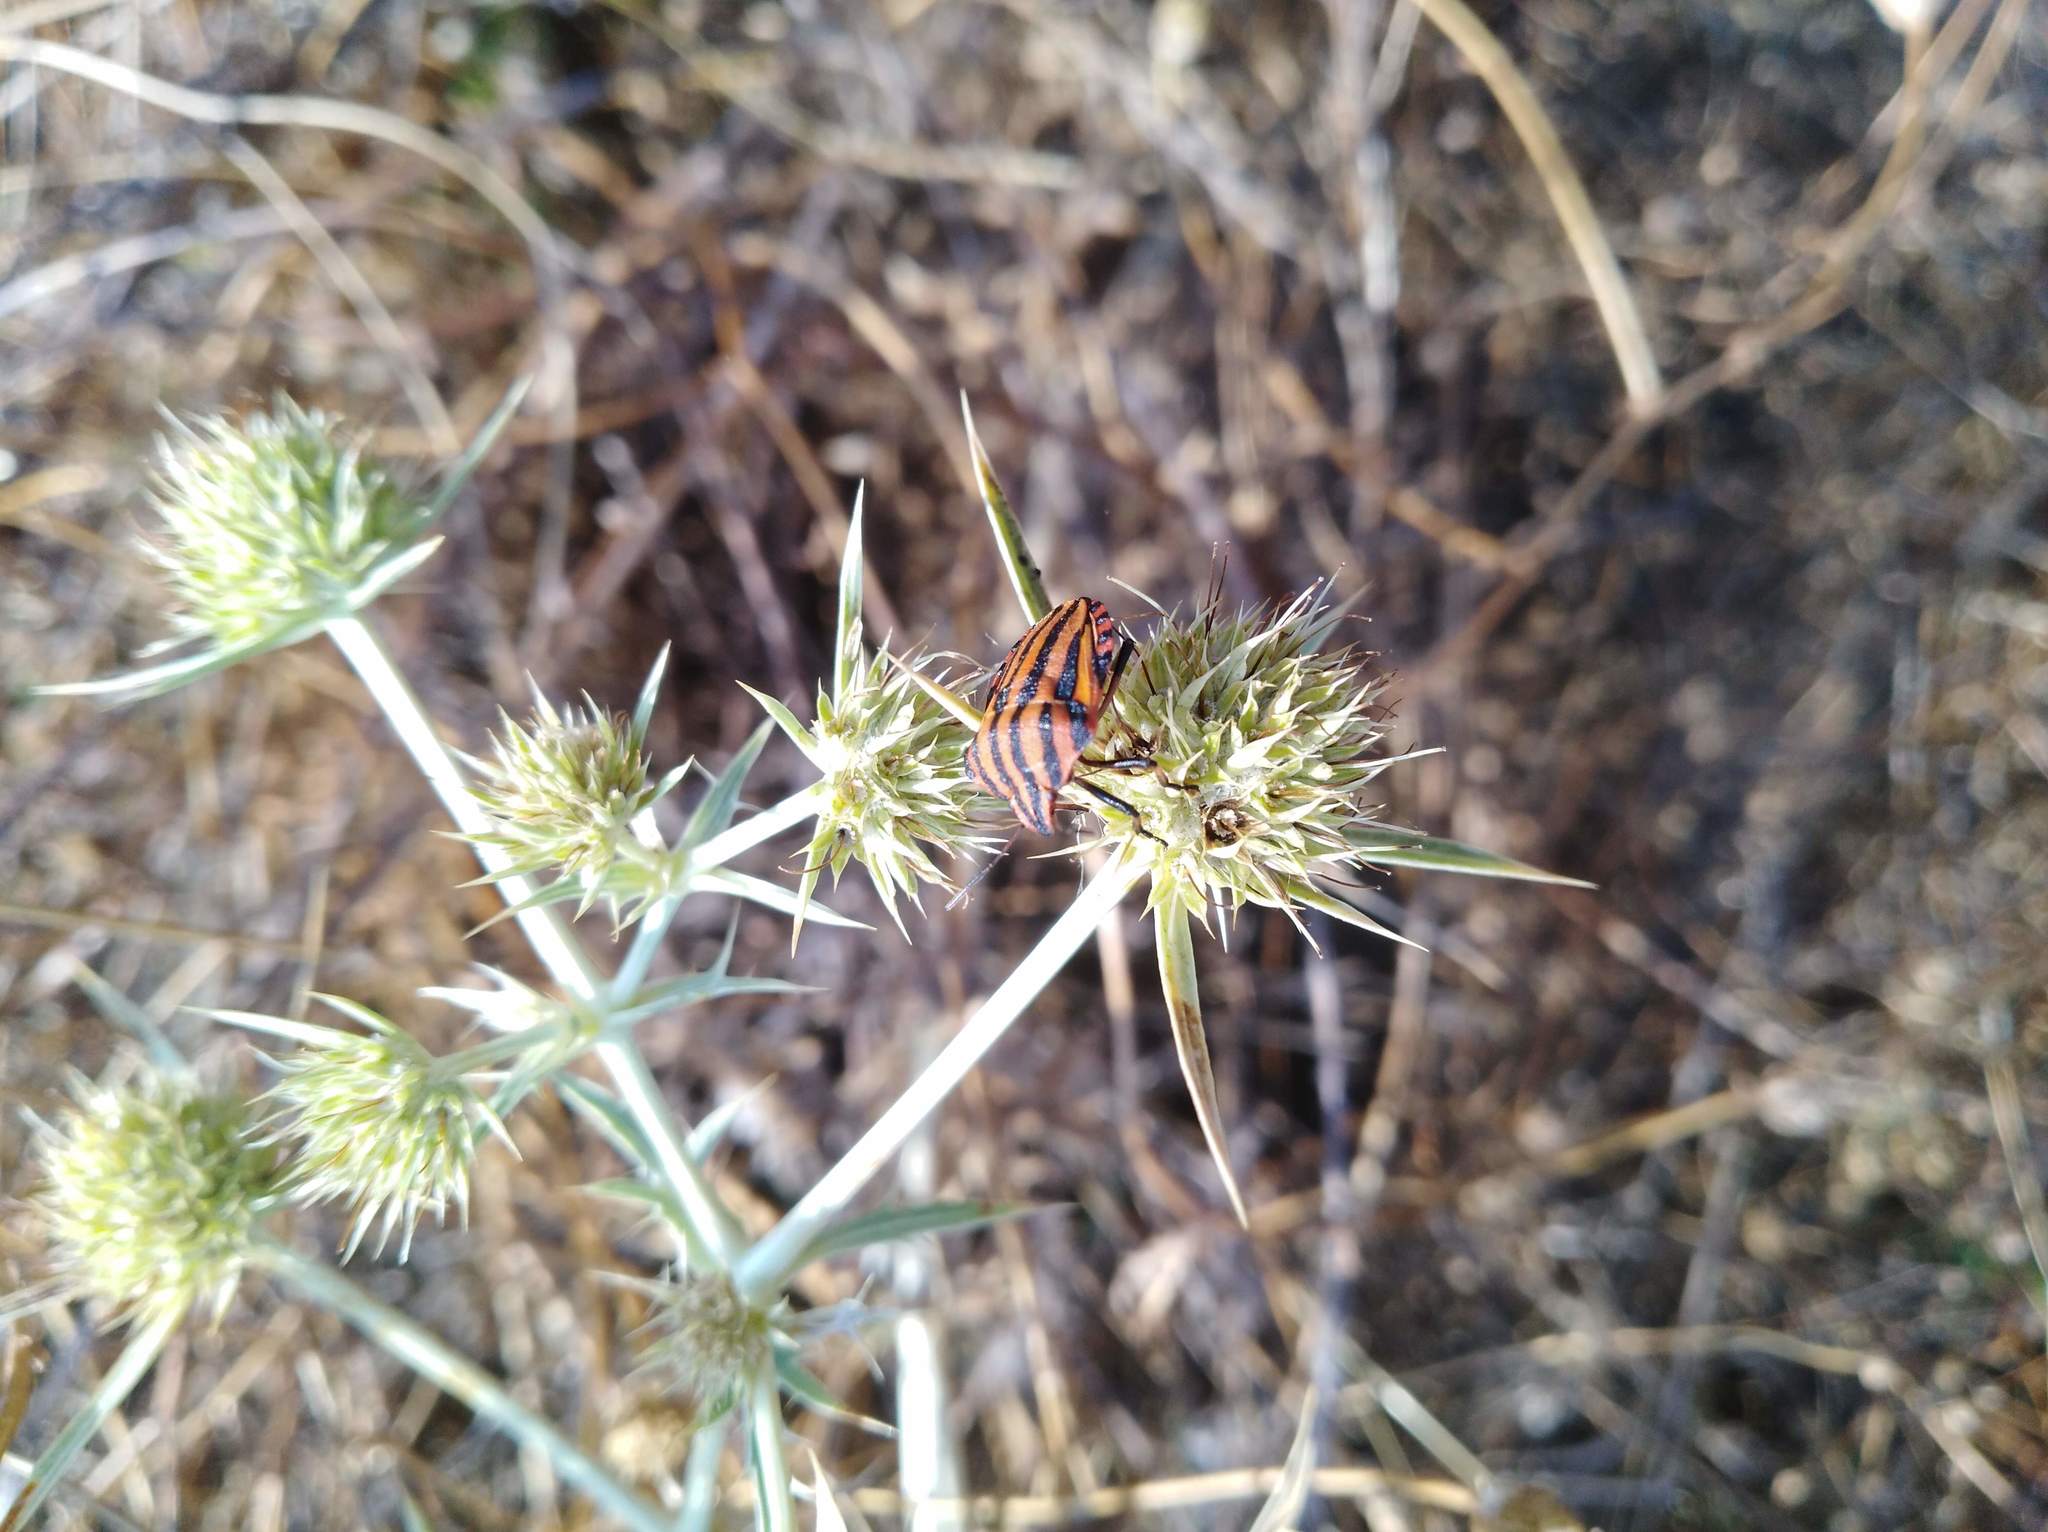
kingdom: Animalia
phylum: Arthropoda
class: Insecta
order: Hemiptera
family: Pentatomidae
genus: Graphosoma
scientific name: Graphosoma italicum
